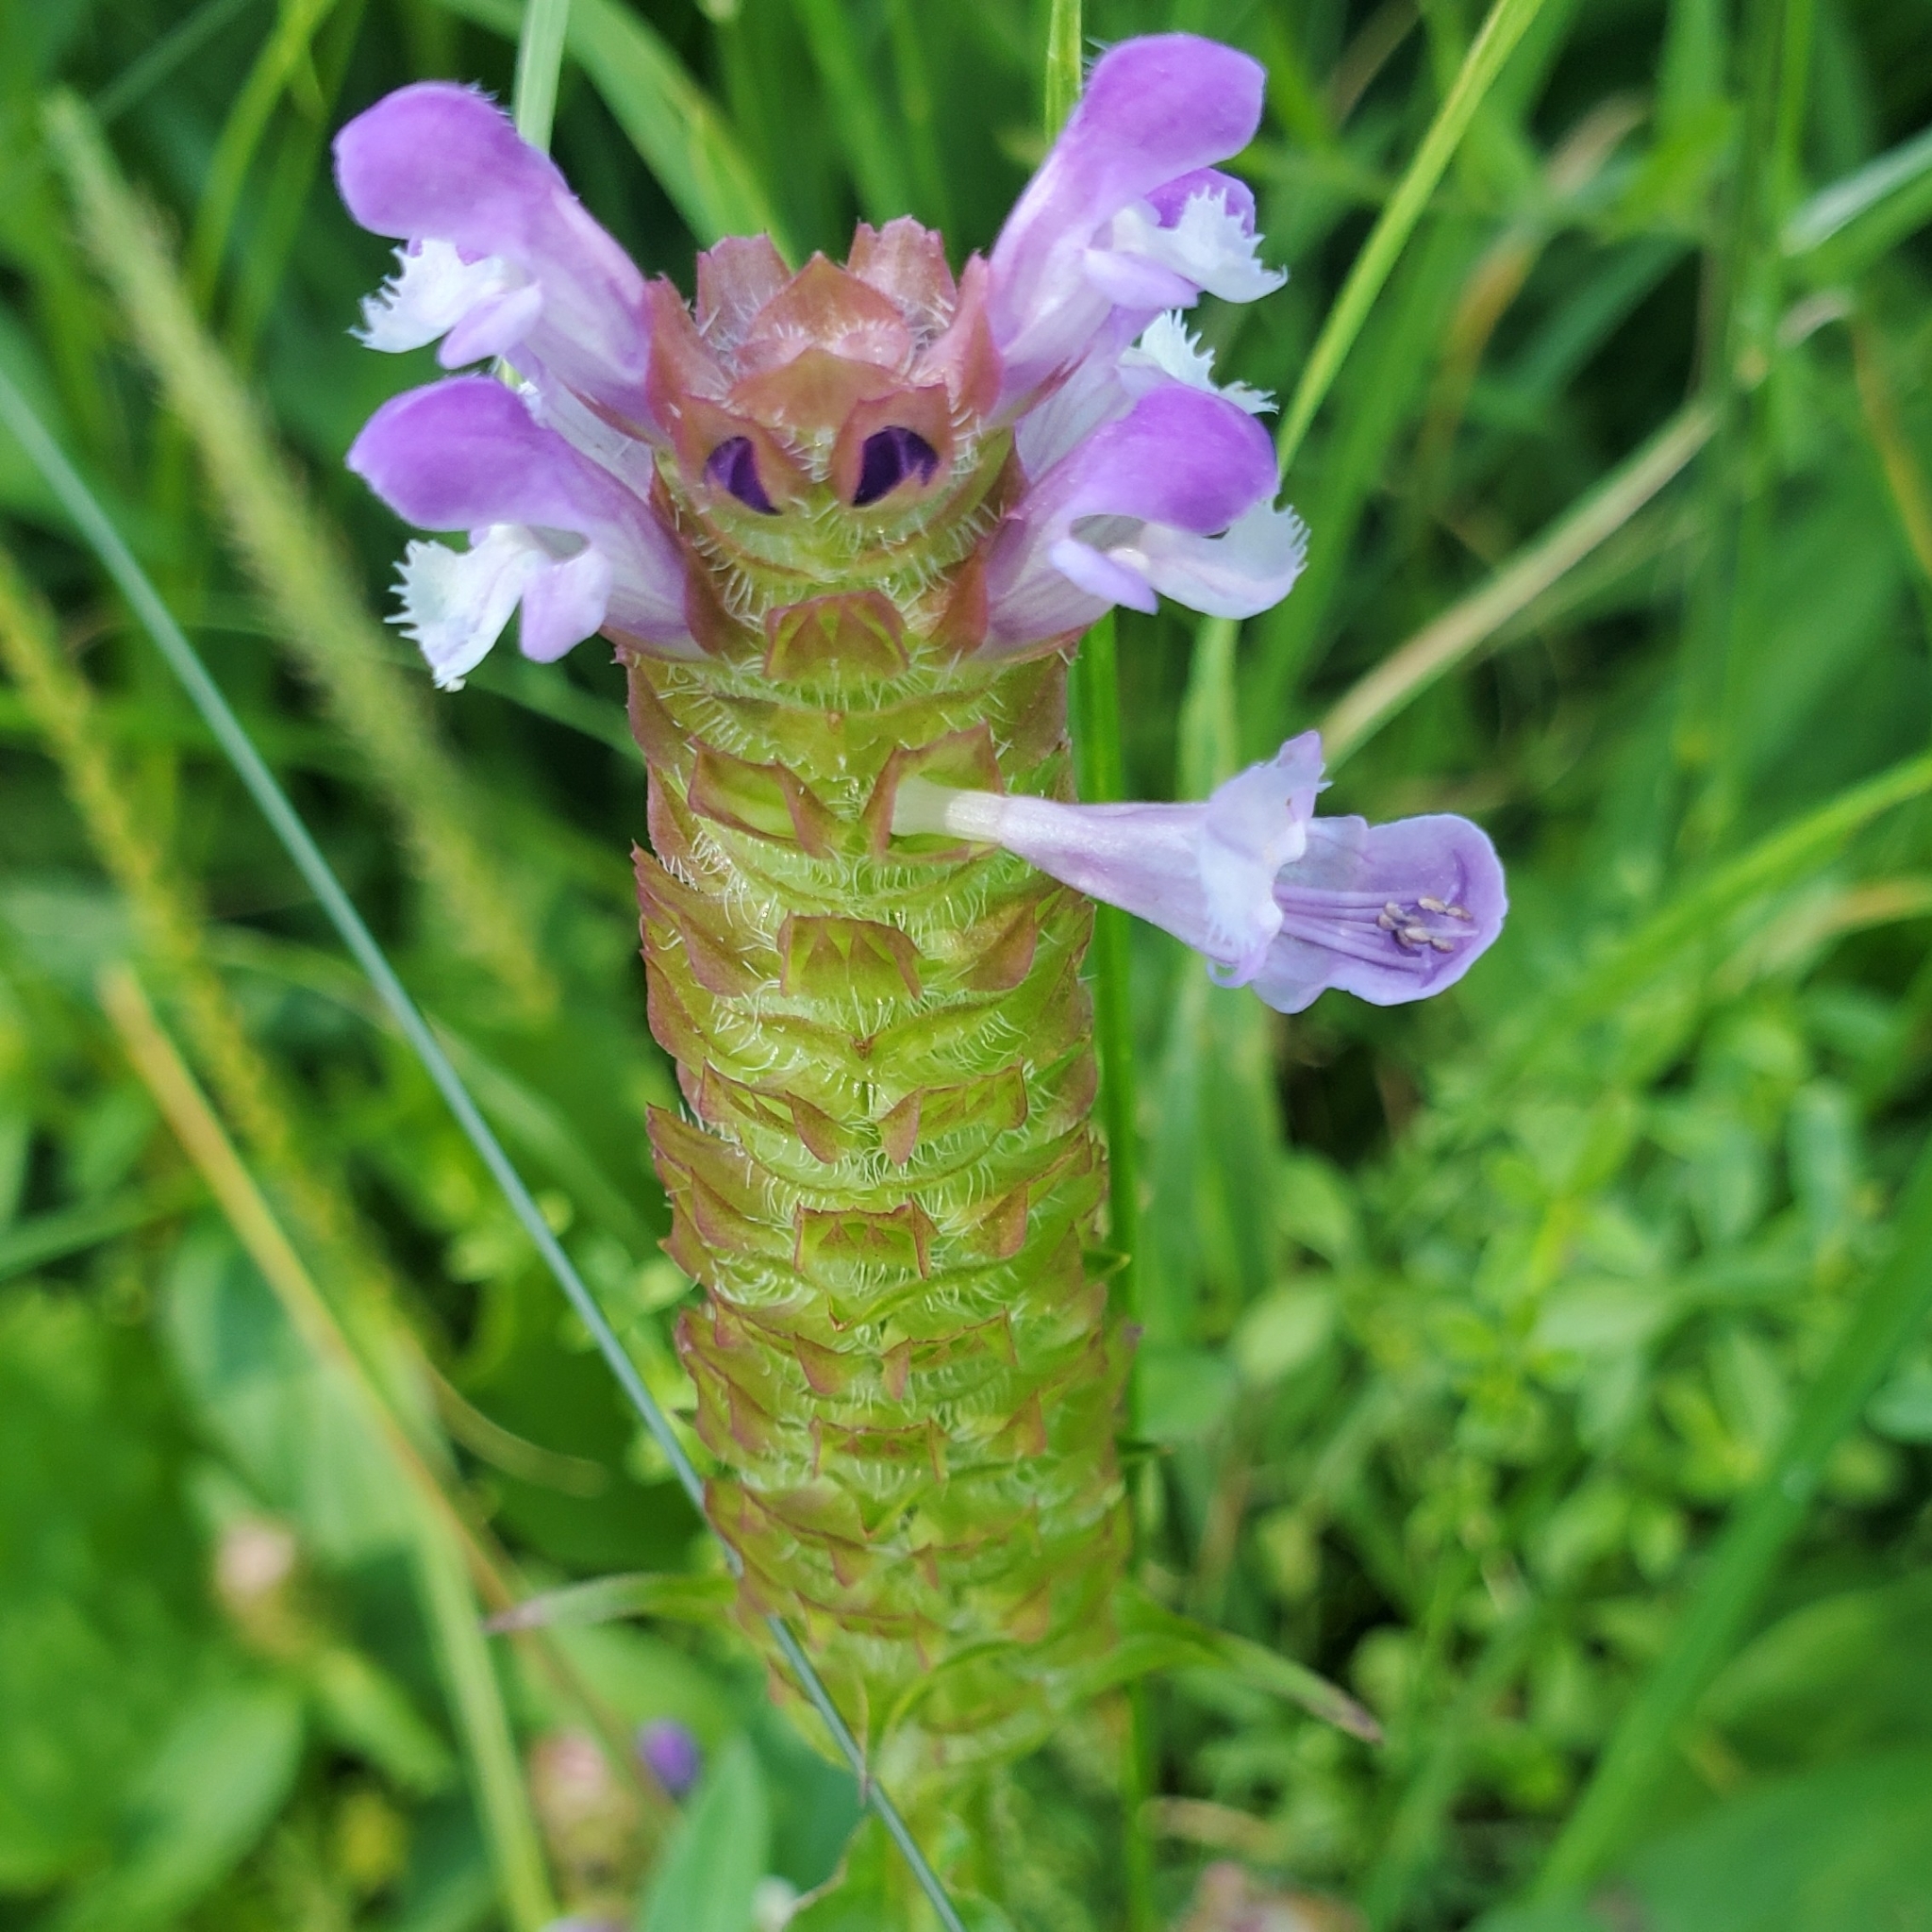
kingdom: Plantae
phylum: Tracheophyta
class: Magnoliopsida
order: Lamiales
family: Lamiaceae
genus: Prunella
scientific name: Prunella vulgaris
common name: Heal-all
